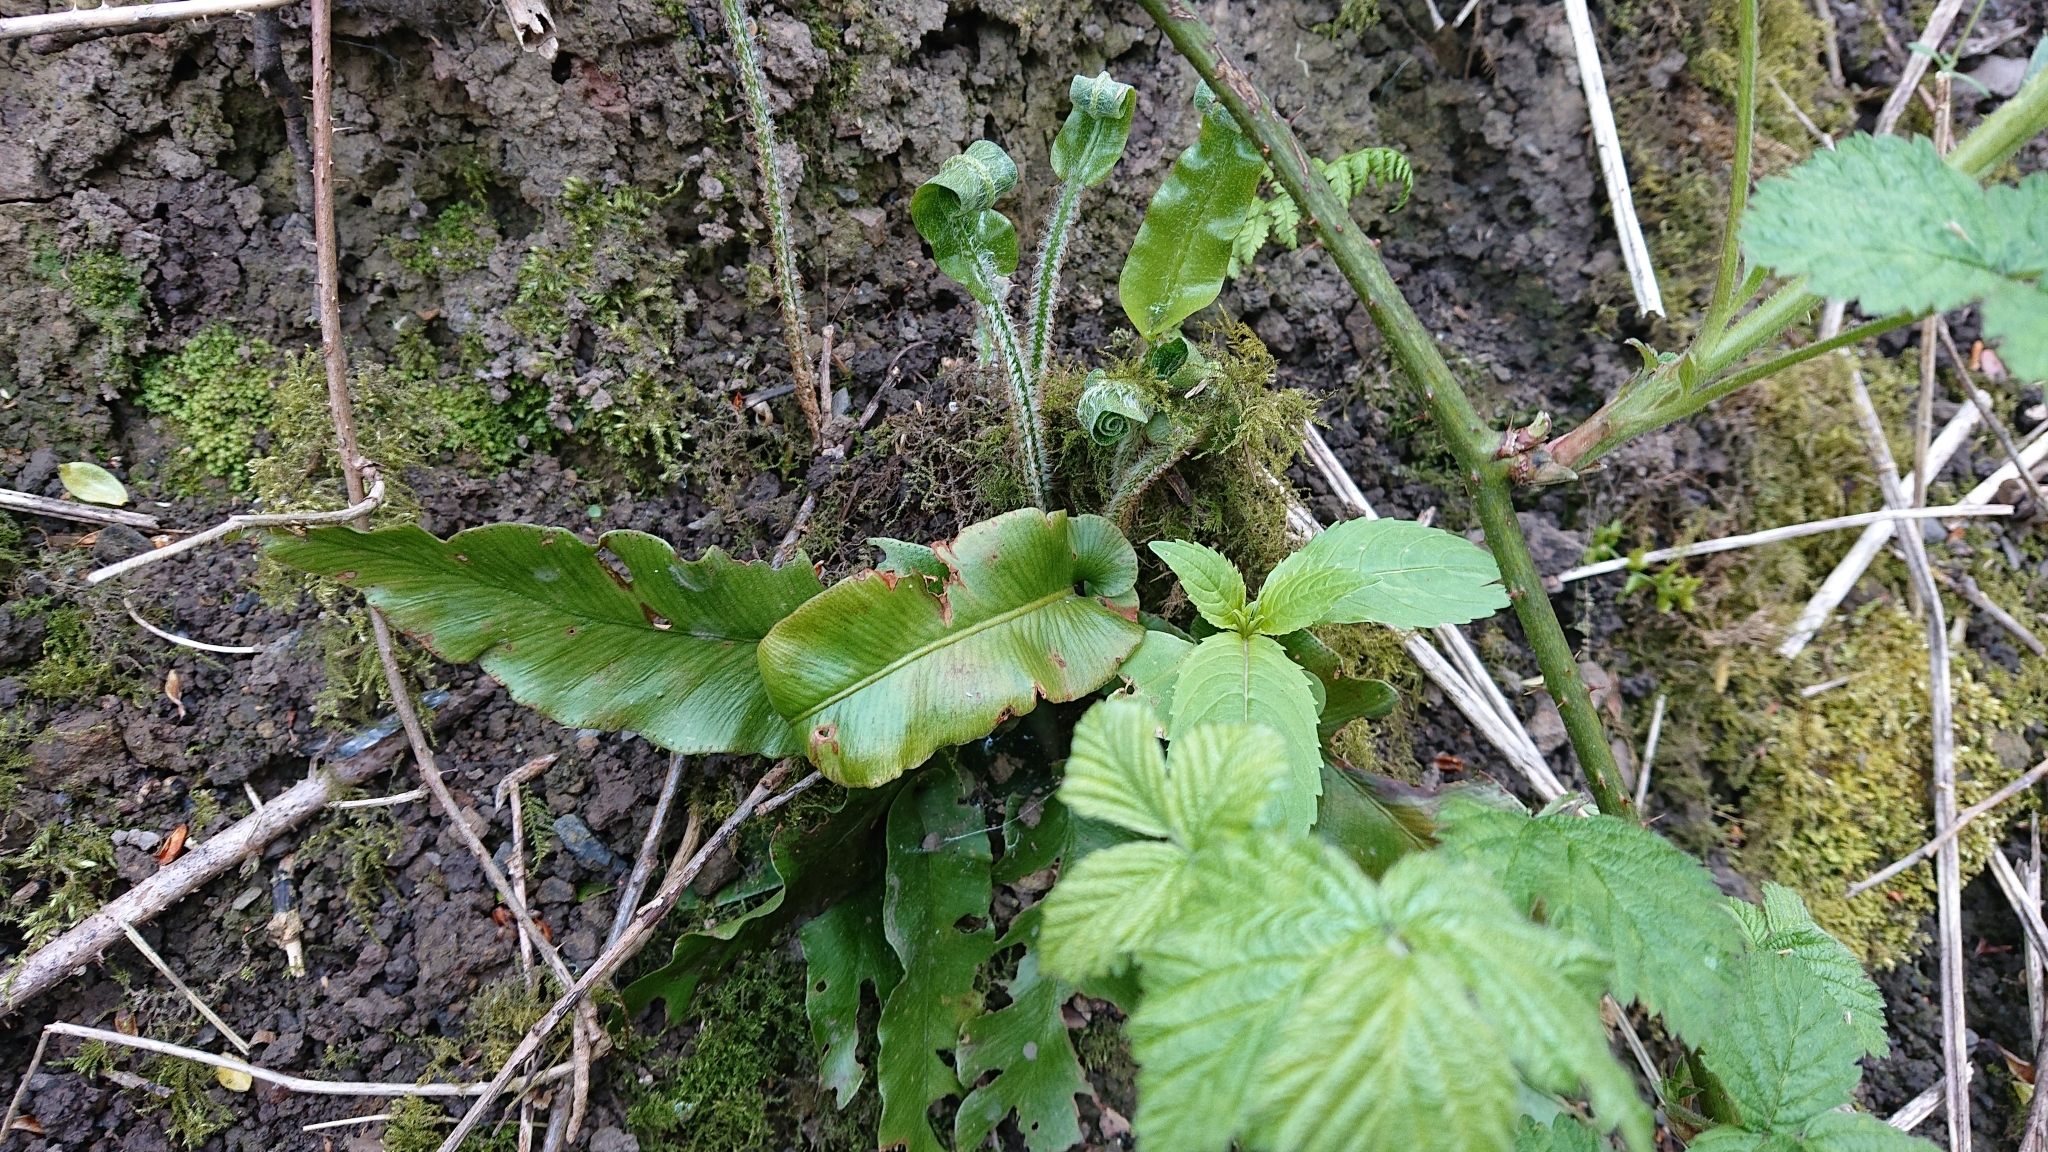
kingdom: Plantae
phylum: Tracheophyta
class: Polypodiopsida
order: Polypodiales
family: Aspleniaceae
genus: Asplenium
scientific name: Asplenium scolopendrium
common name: Hart's-tongue fern
